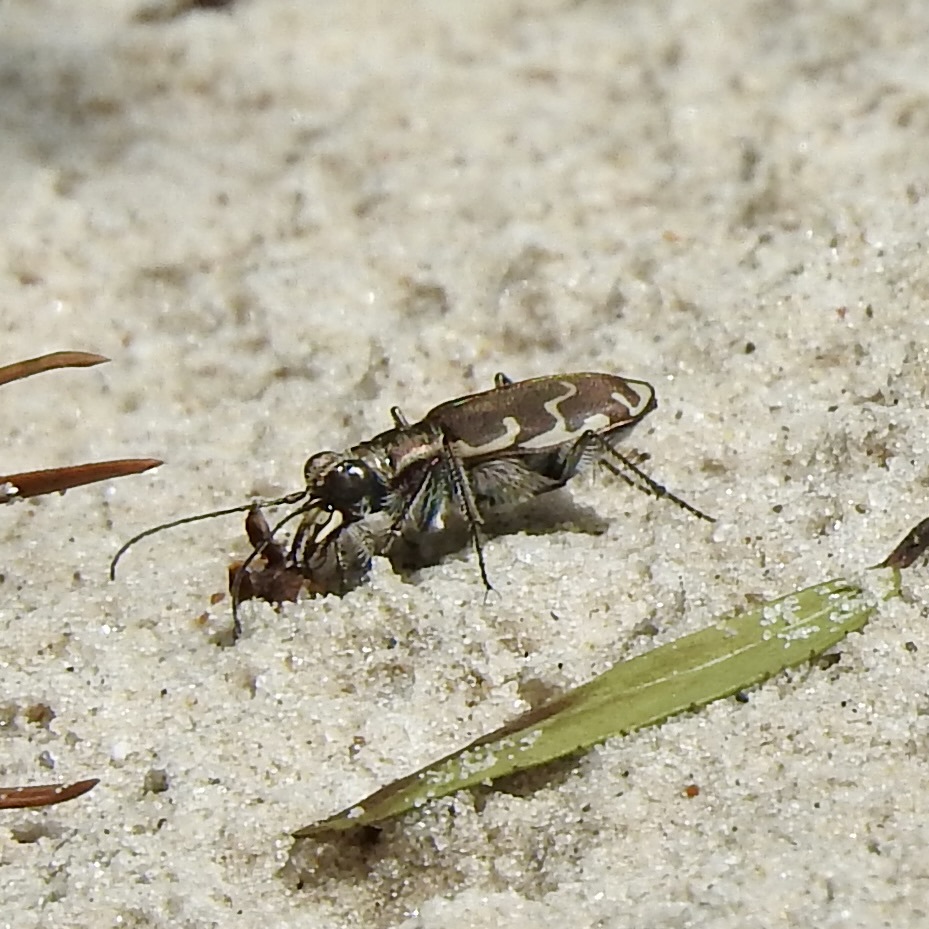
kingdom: Animalia
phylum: Arthropoda
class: Insecta
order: Coleoptera
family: Carabidae
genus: Cicindela
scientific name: Cicindela repanda
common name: Bronzed tiger beetle
